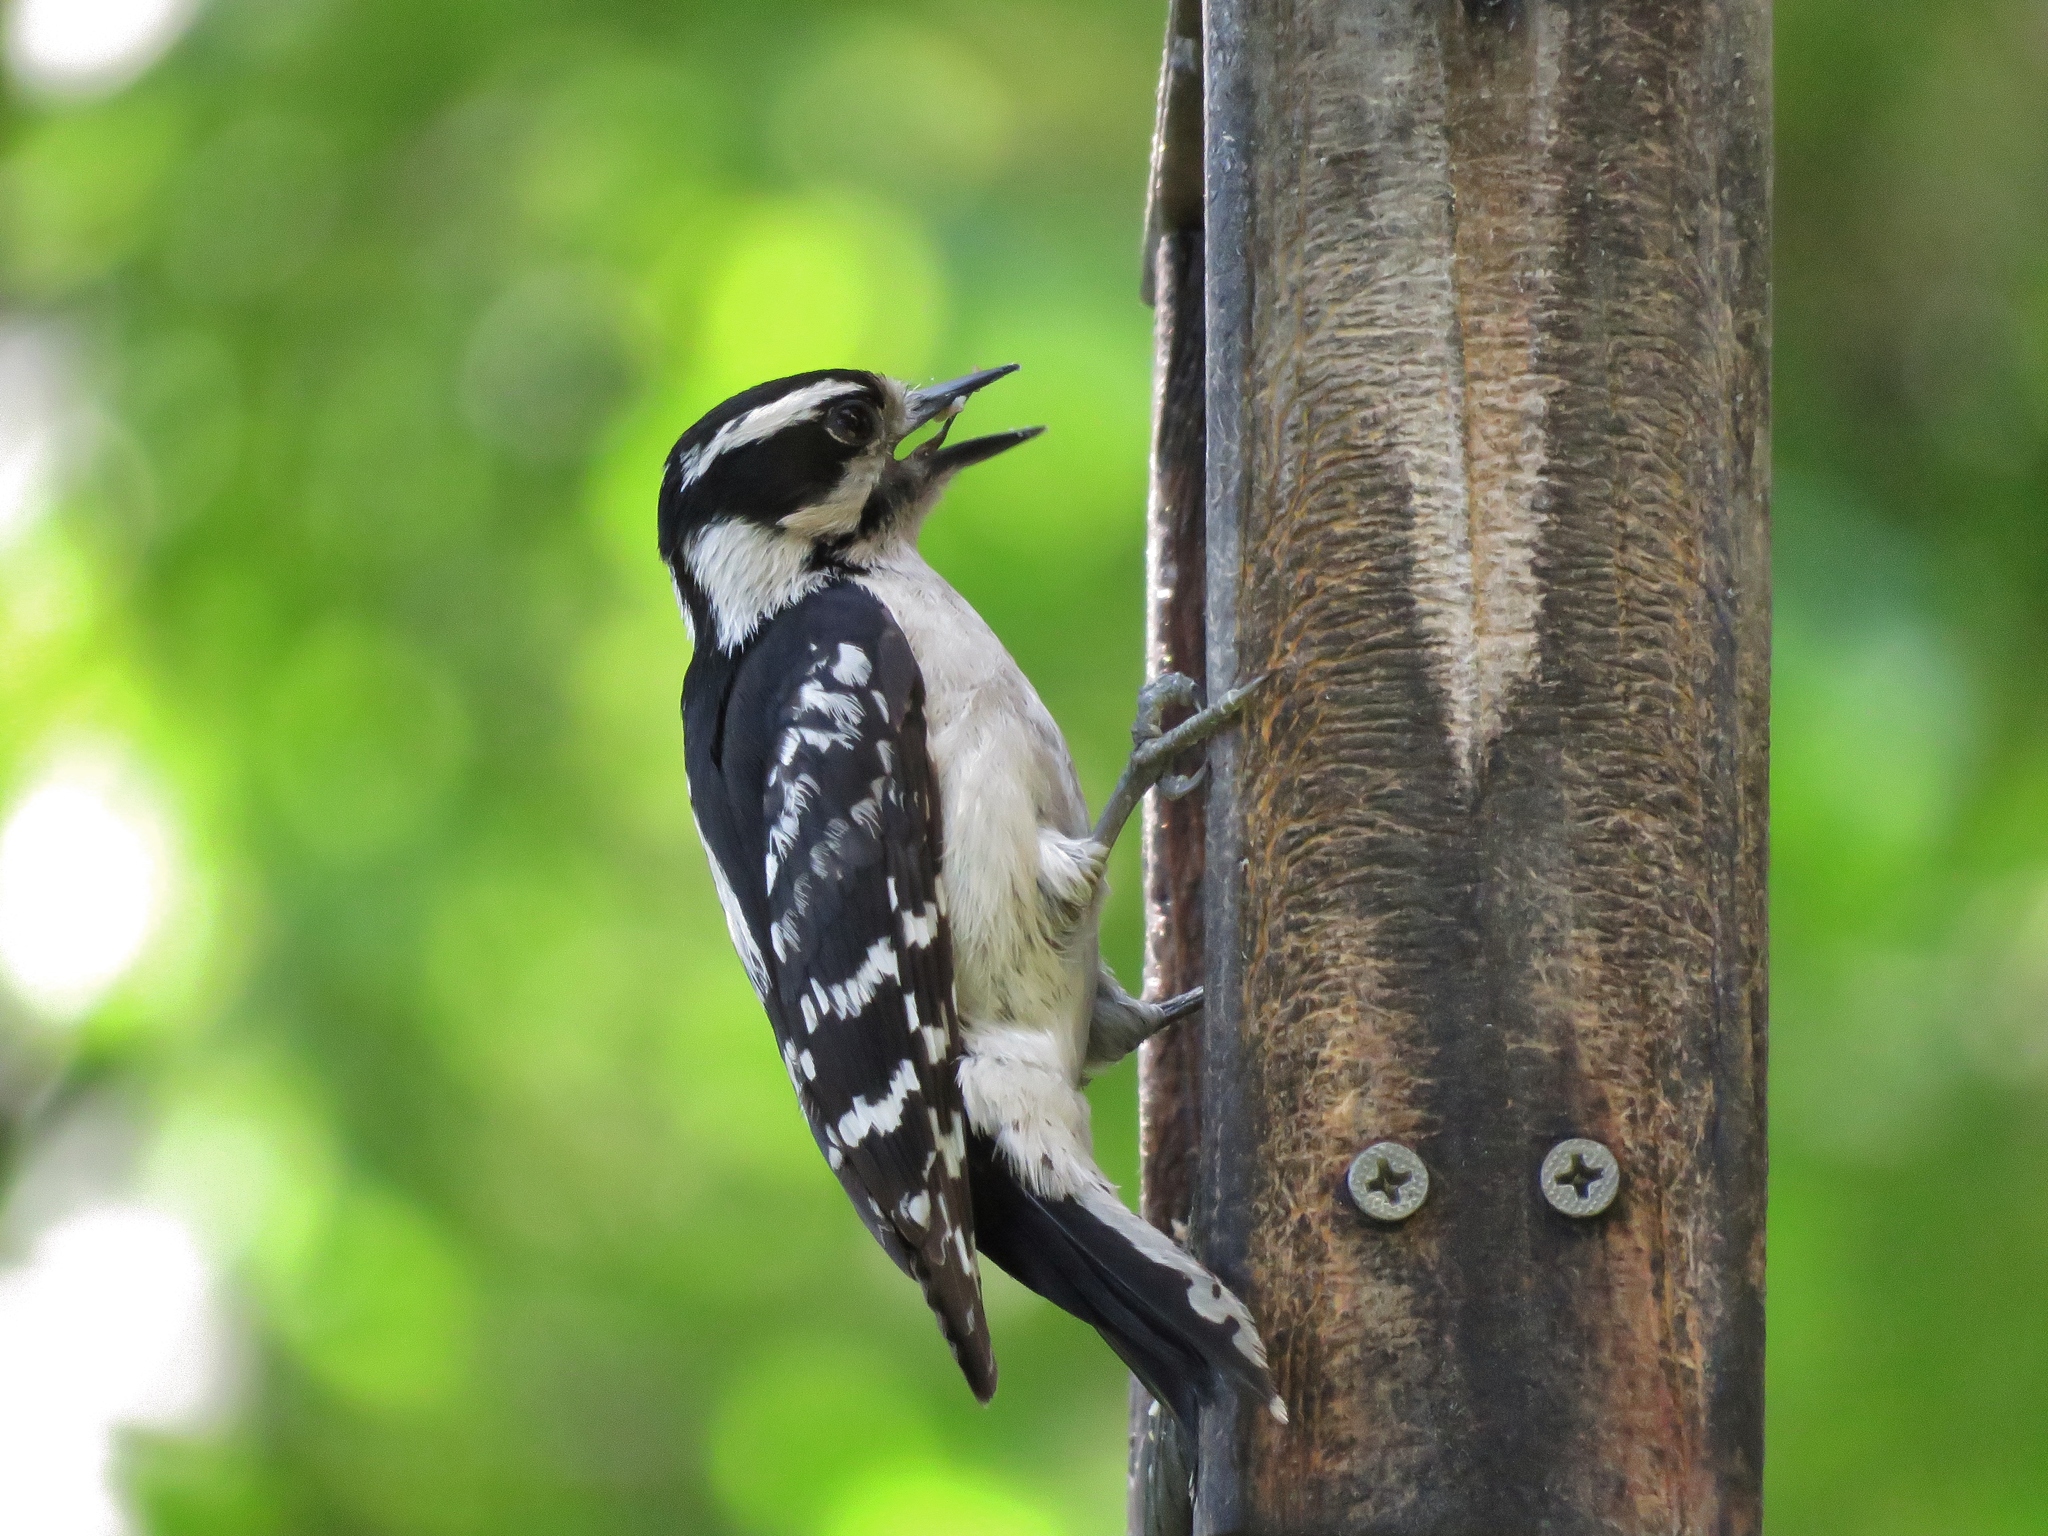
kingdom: Animalia
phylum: Chordata
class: Aves
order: Piciformes
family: Picidae
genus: Dryobates
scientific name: Dryobates pubescens
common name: Downy woodpecker
